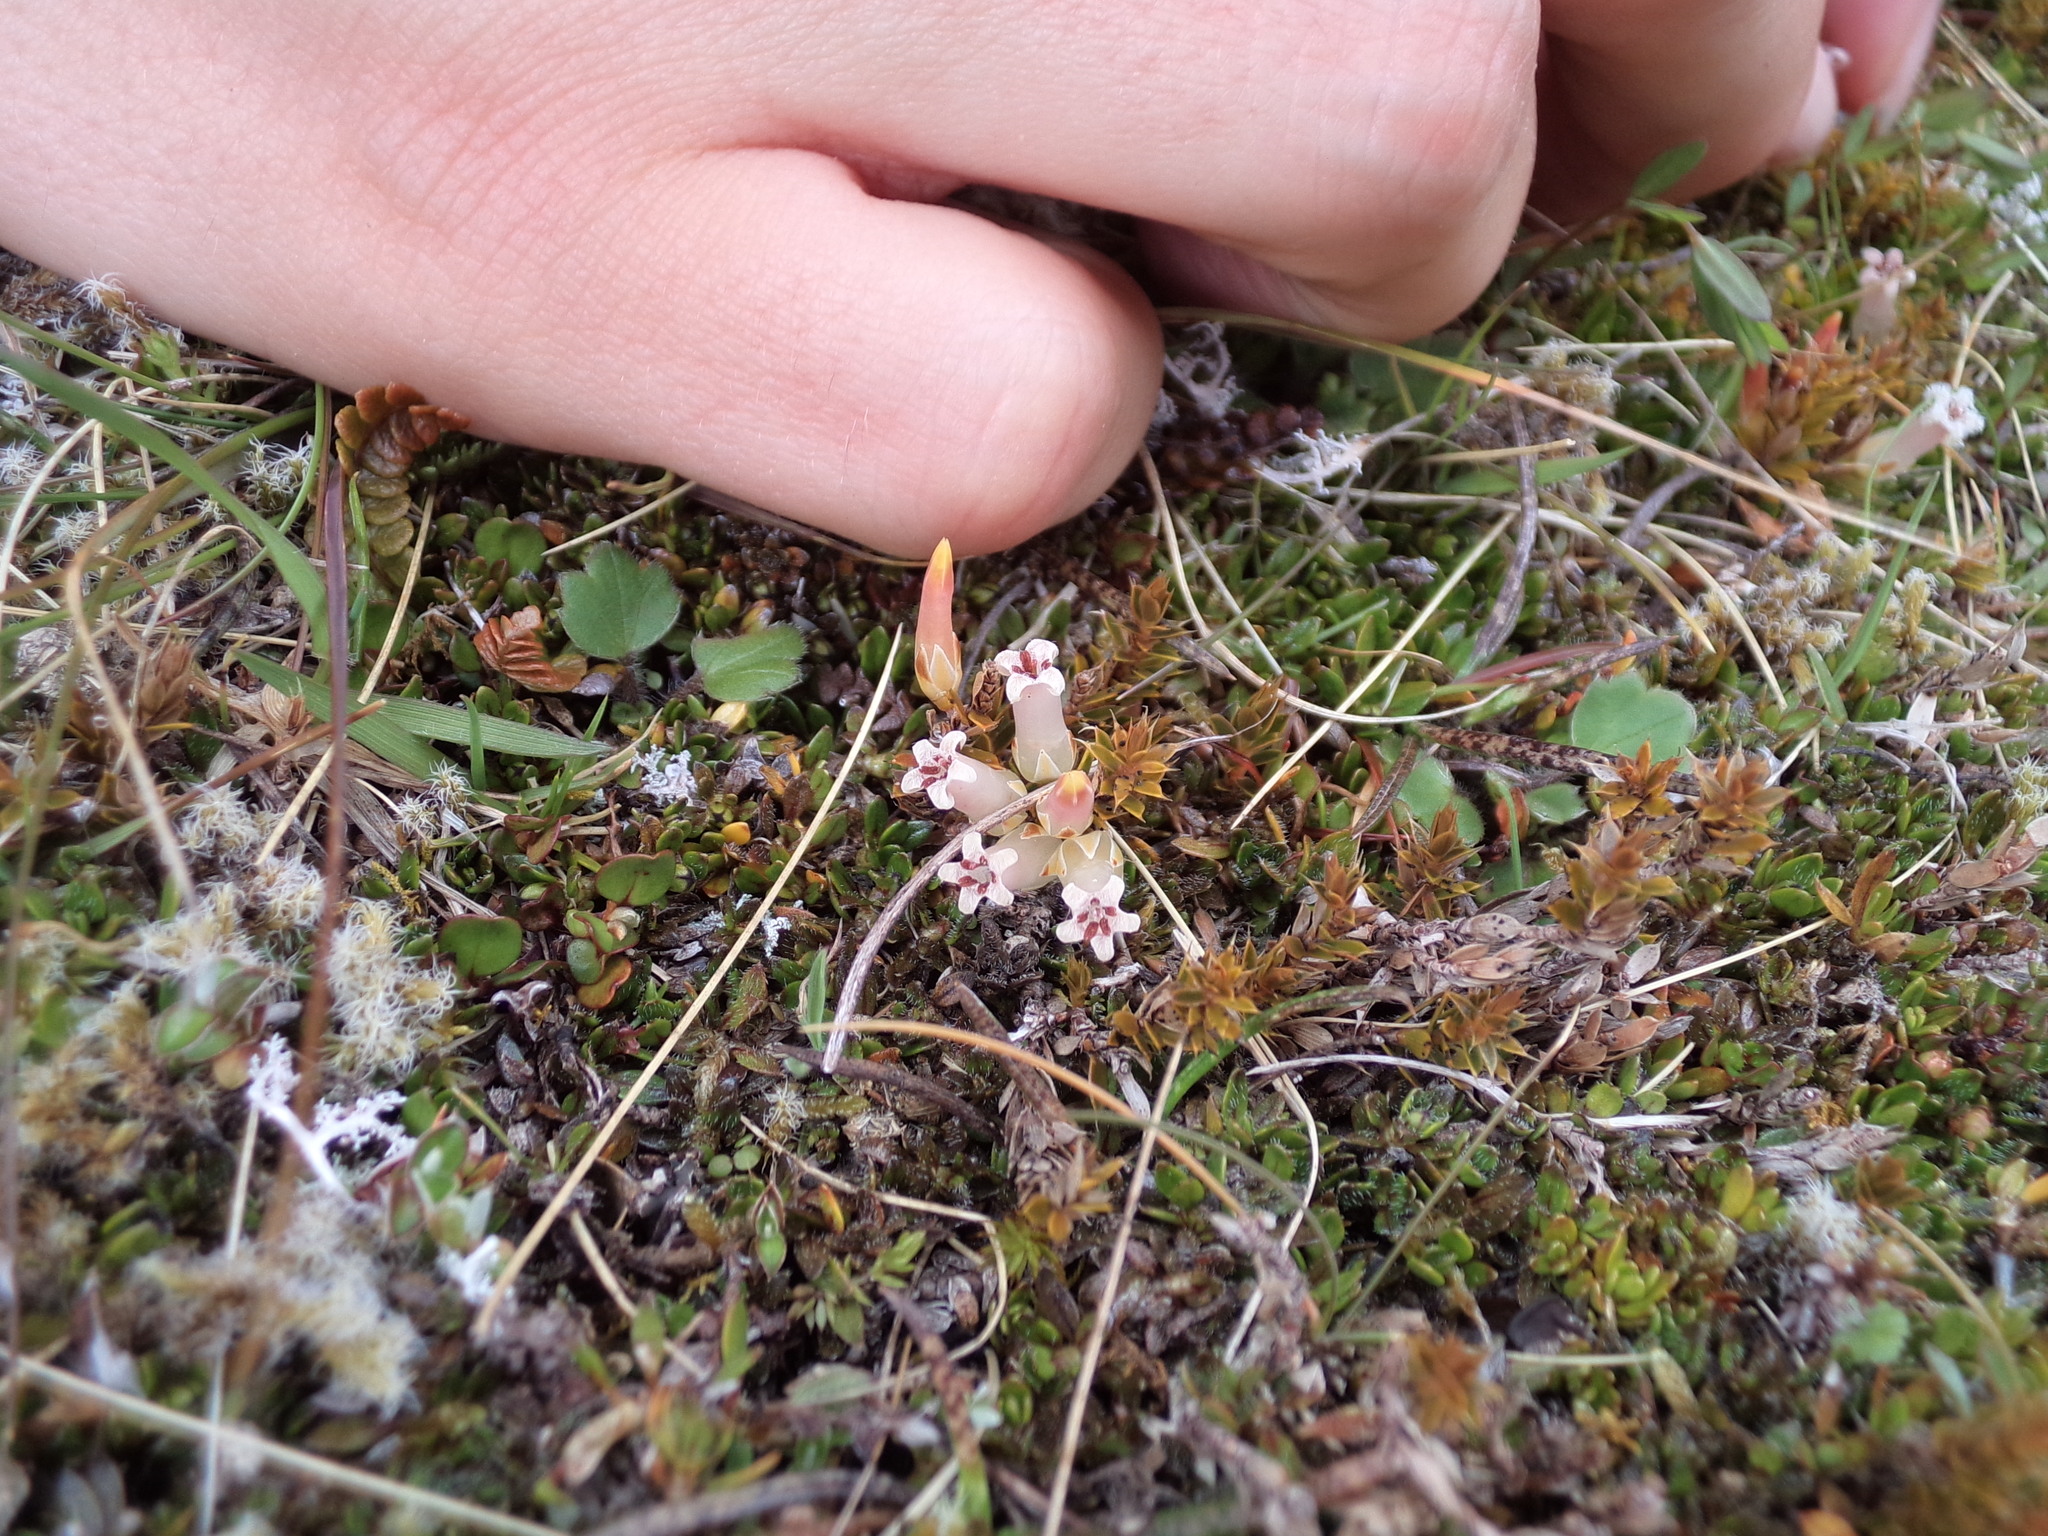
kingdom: Plantae
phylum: Tracheophyta
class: Magnoliopsida
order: Ericales
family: Ericaceae
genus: Styphelia
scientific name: Styphelia nesophila
